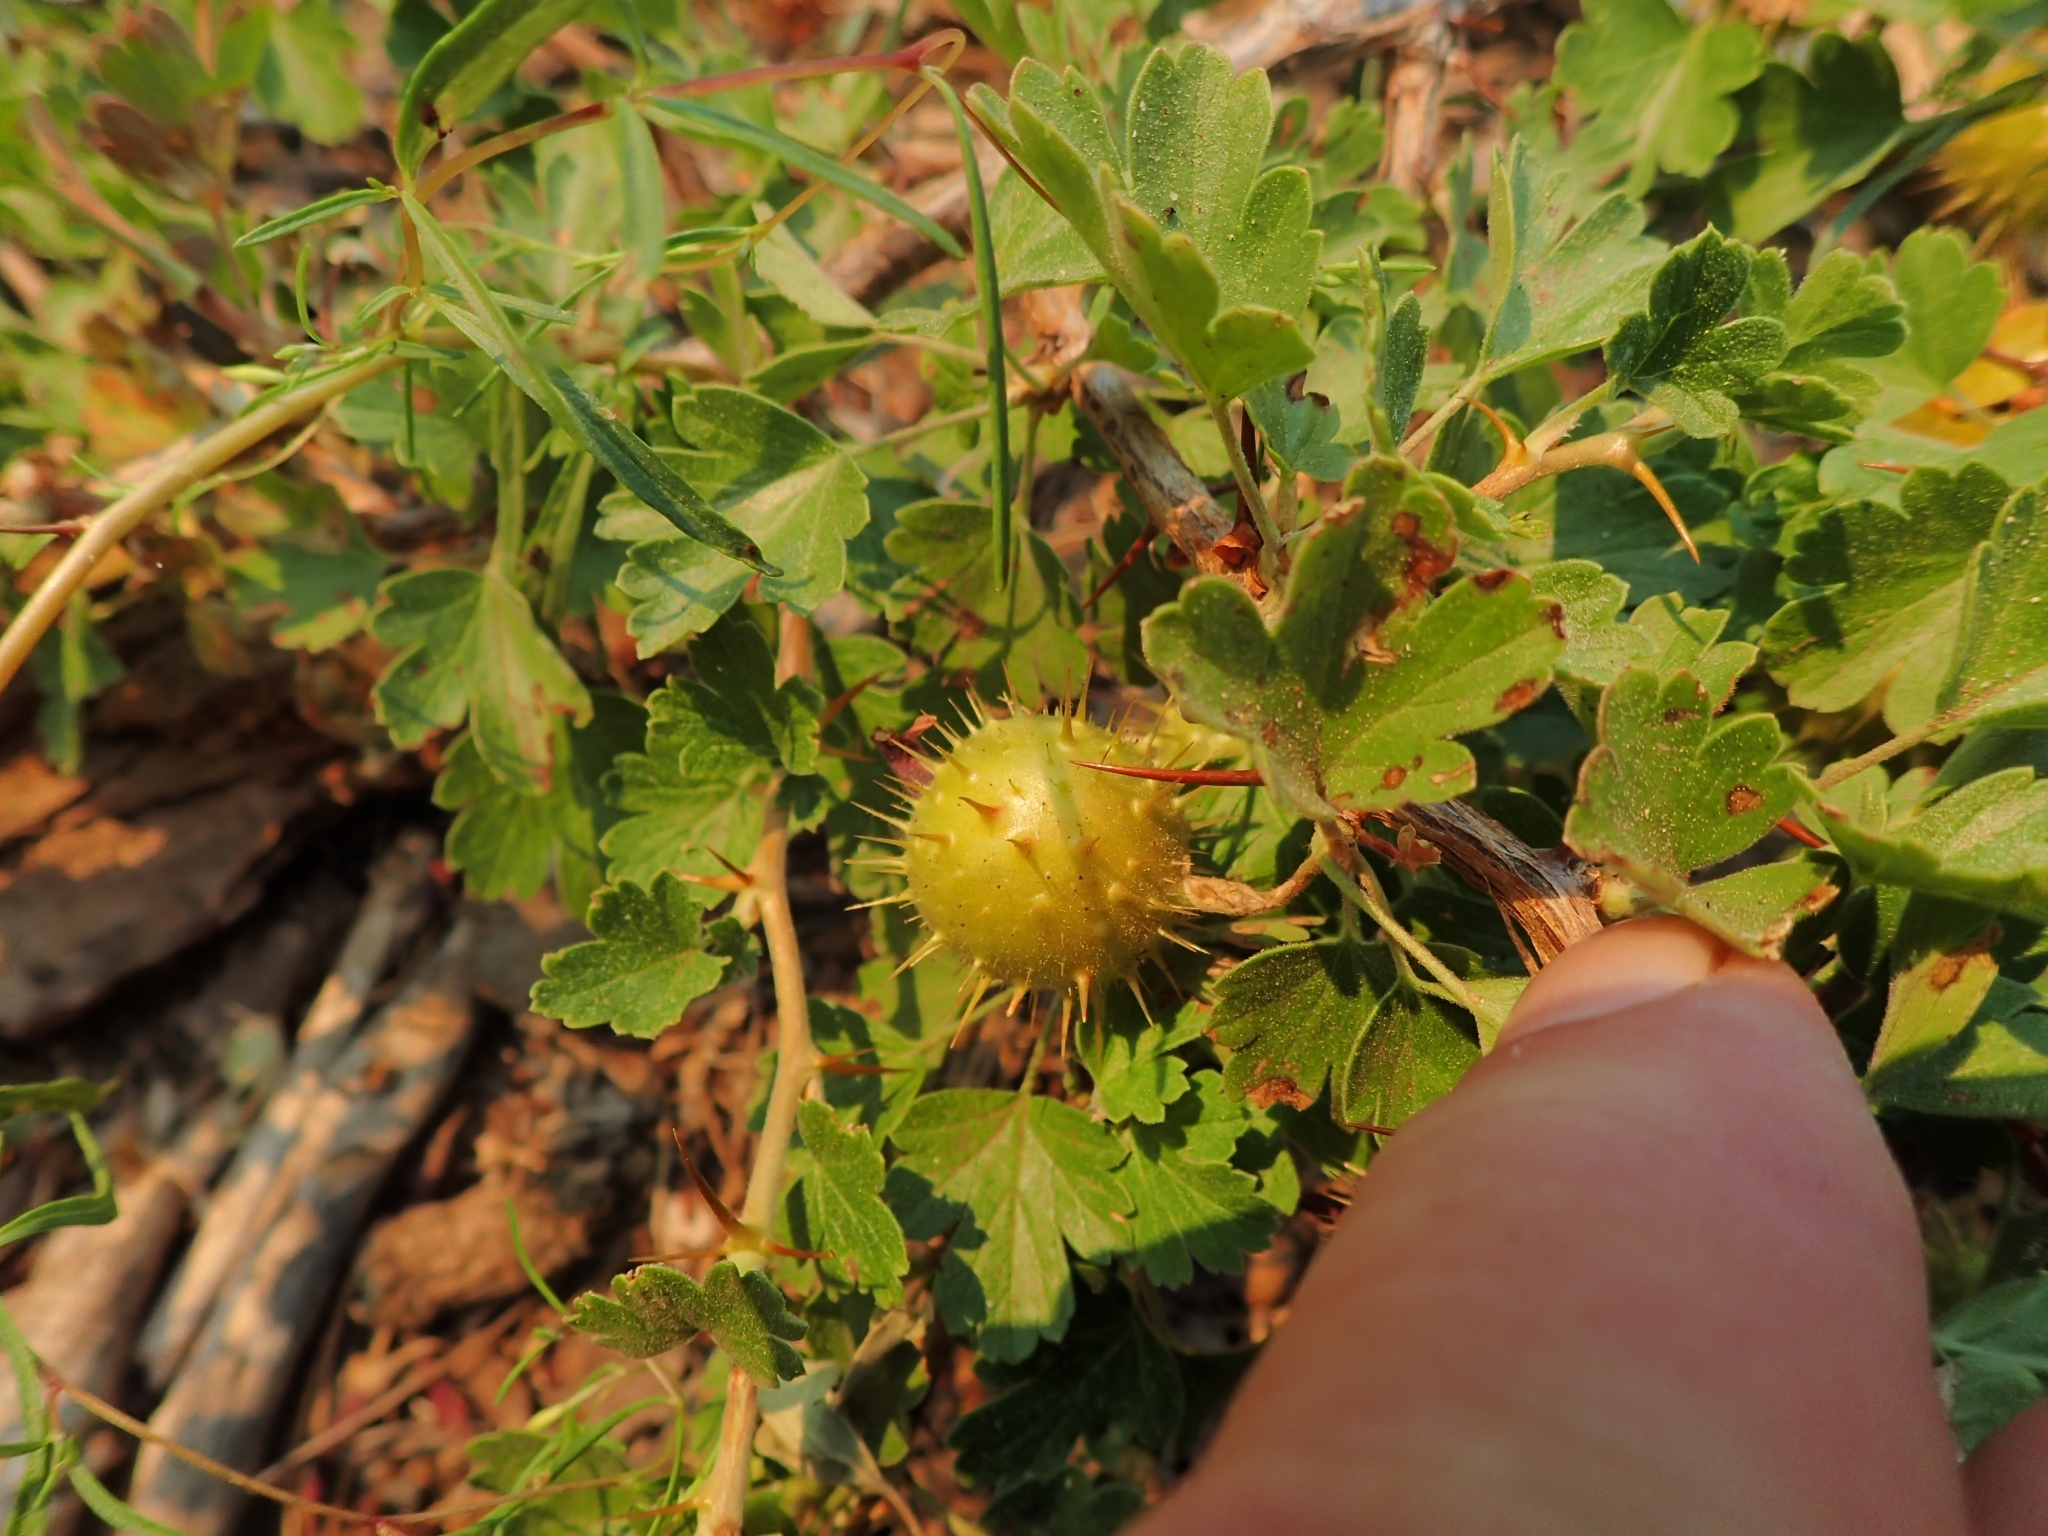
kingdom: Plantae
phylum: Tracheophyta
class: Magnoliopsida
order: Saxifragales
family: Grossulariaceae
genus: Ribes
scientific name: Ribes roezlii
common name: Sierra gooseberry
